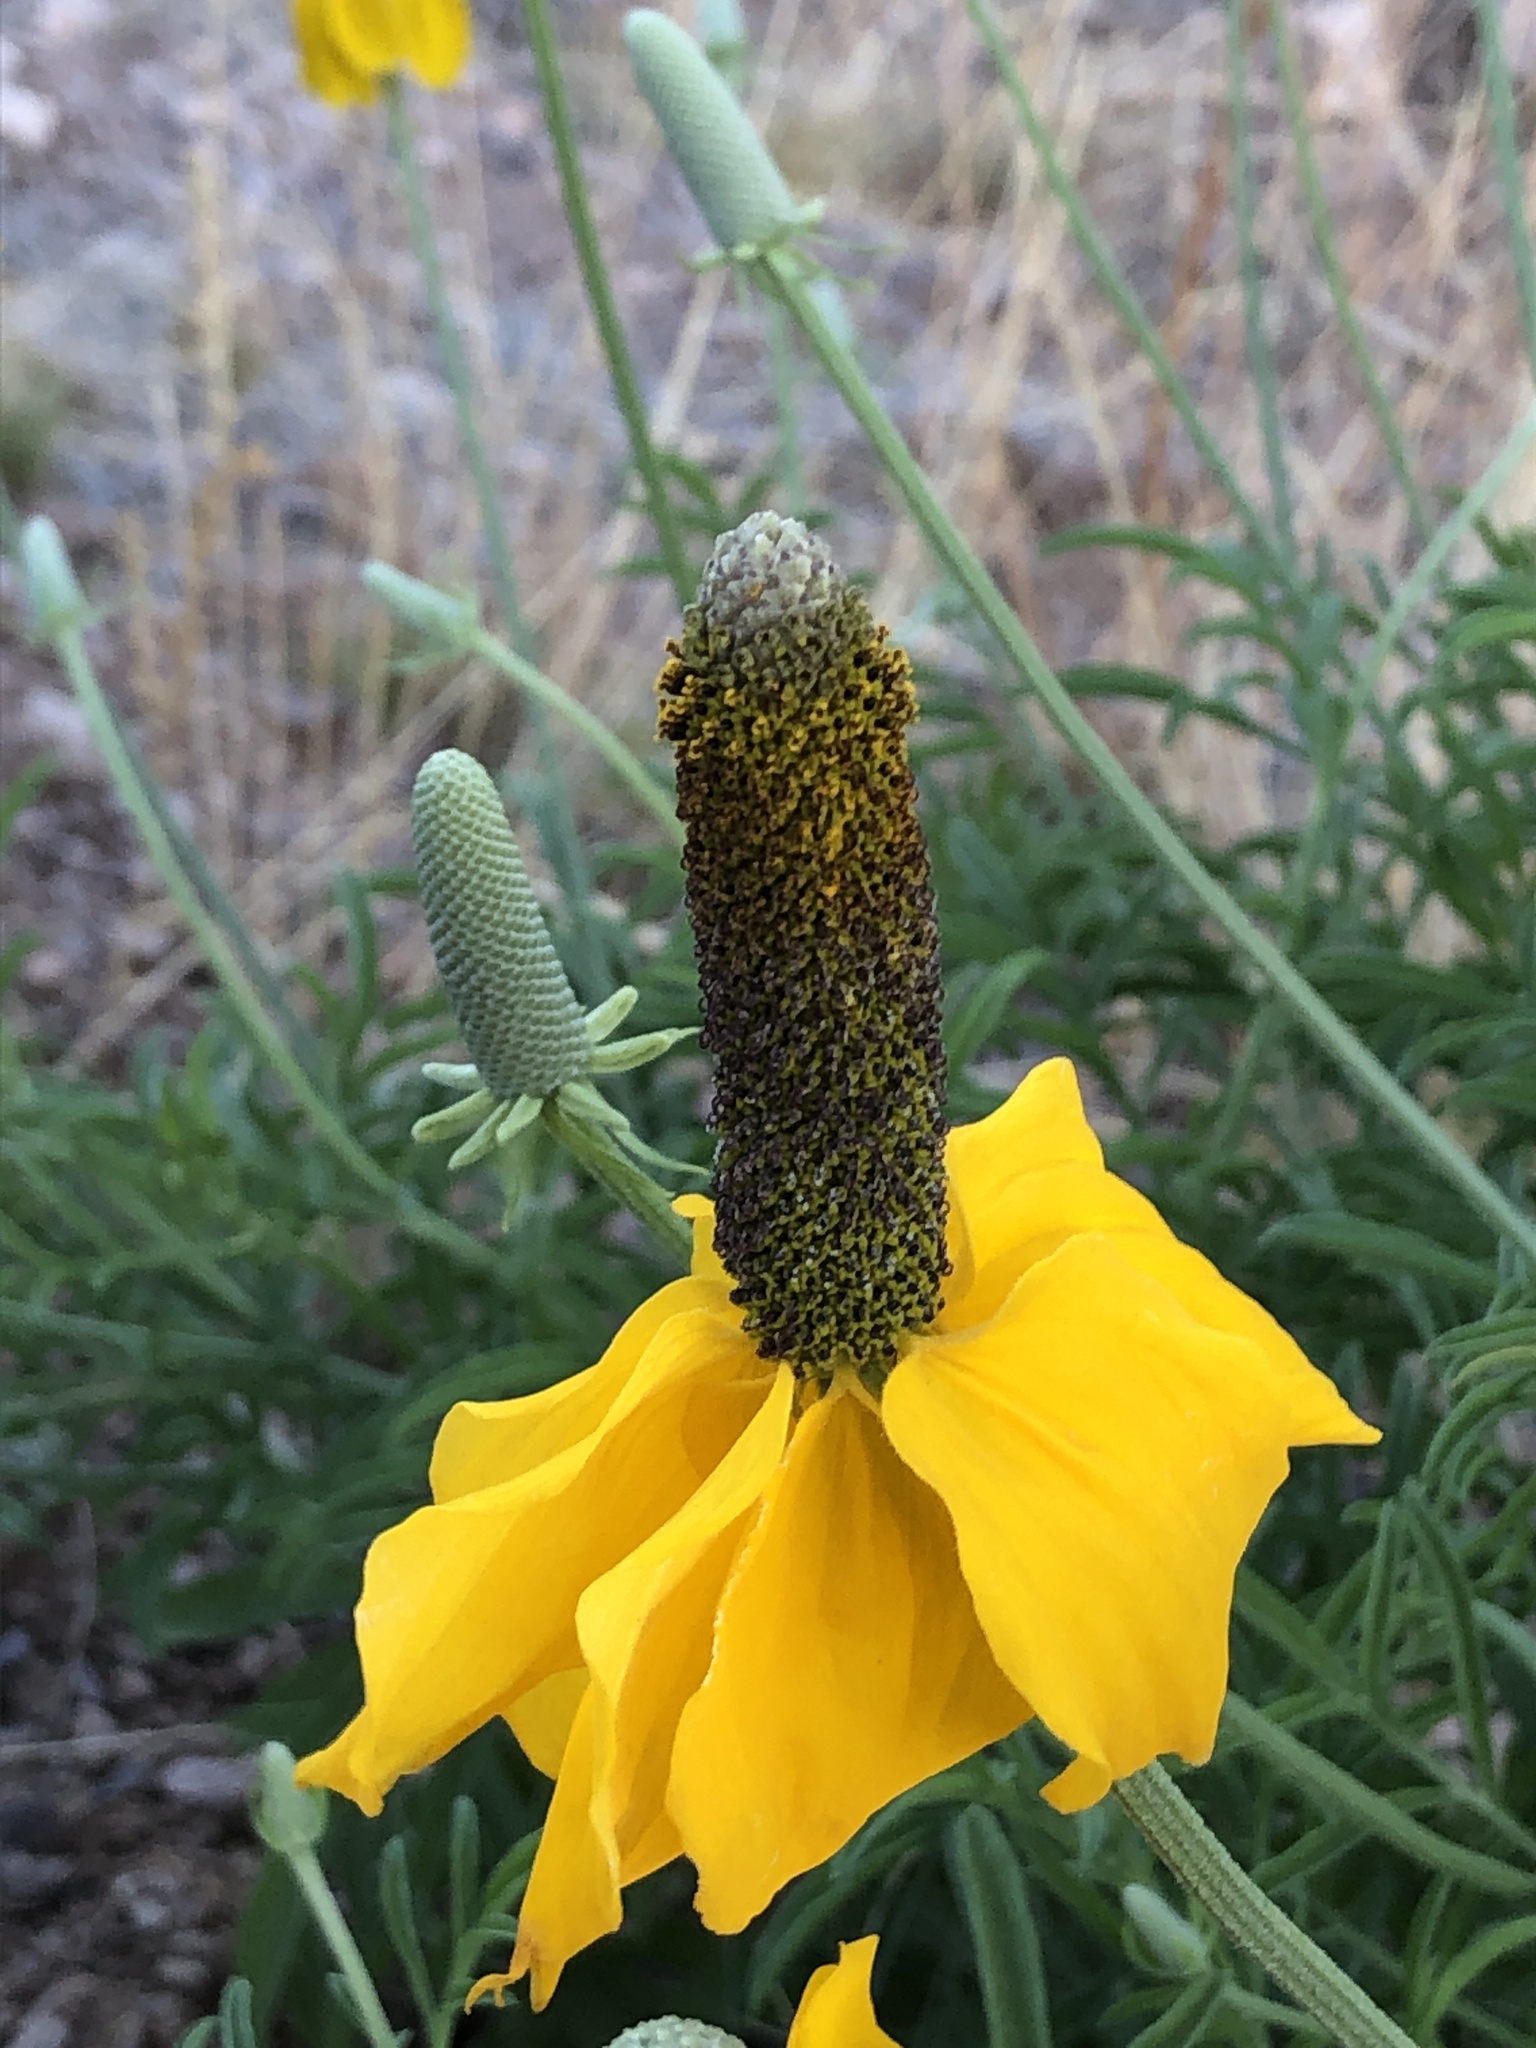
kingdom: Plantae
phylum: Tracheophyta
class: Magnoliopsida
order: Asterales
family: Asteraceae
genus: Ratibida
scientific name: Ratibida columnifera
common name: Prairie coneflower
